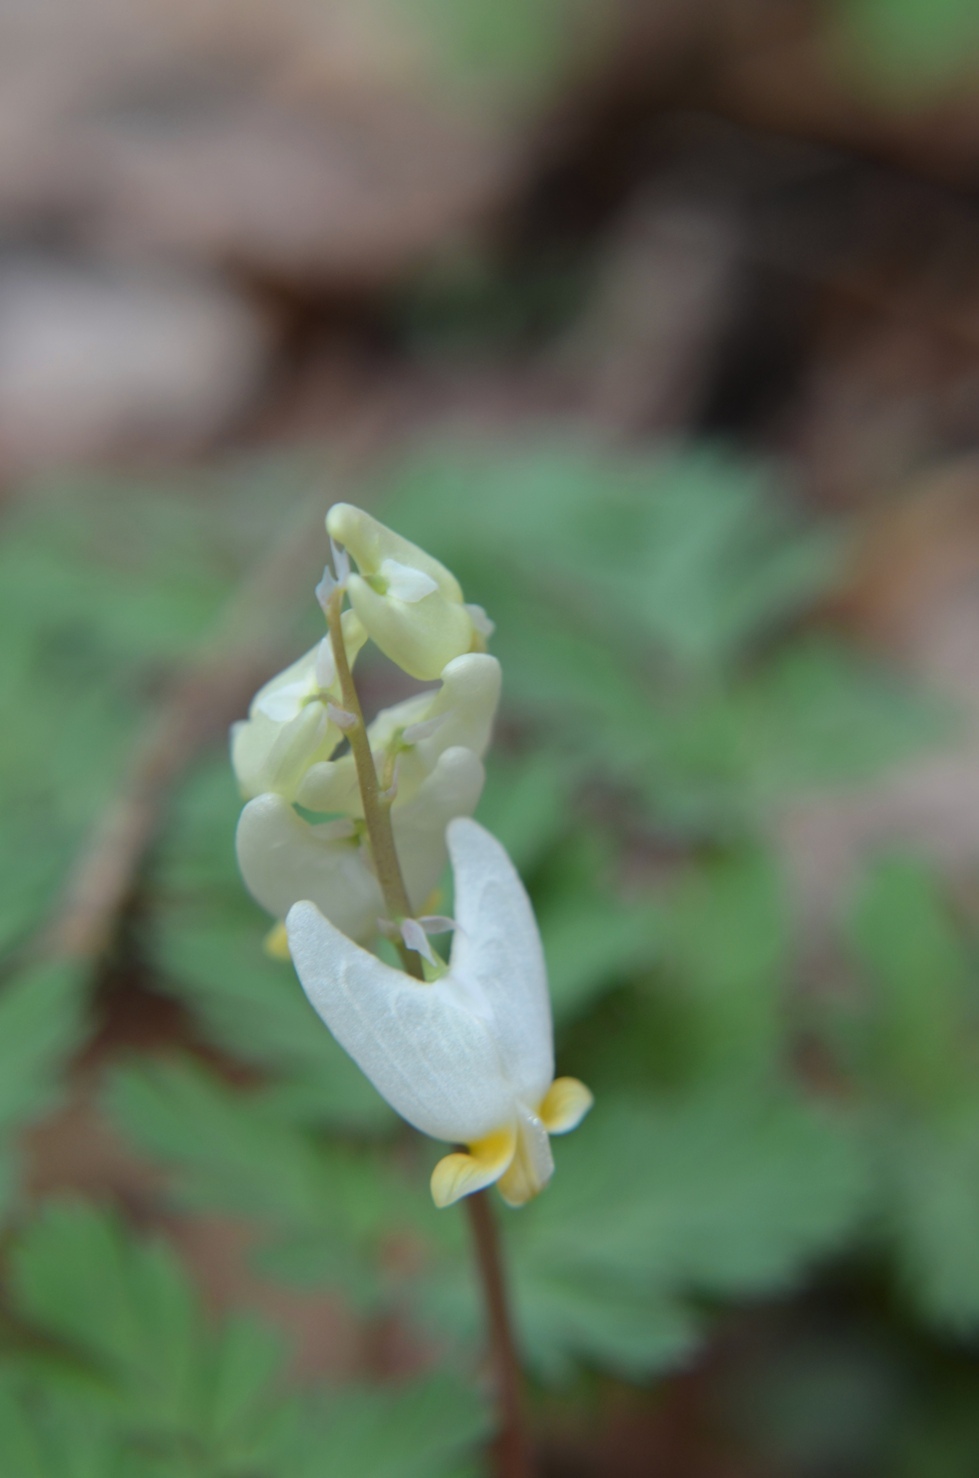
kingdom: Plantae
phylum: Tracheophyta
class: Magnoliopsida
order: Ranunculales
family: Papaveraceae
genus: Dicentra
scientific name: Dicentra cucullaria
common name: Dutchman's breeches
